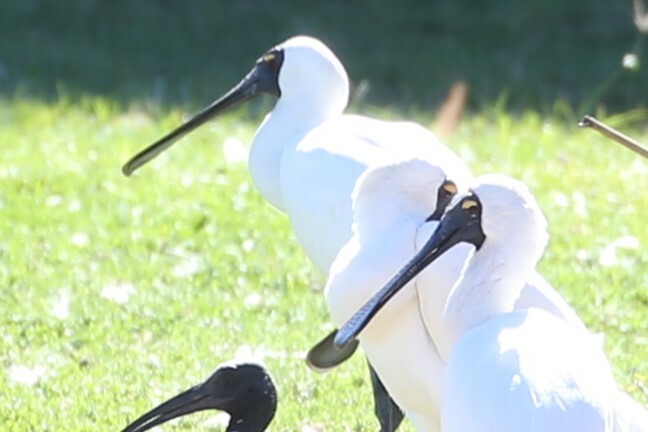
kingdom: Animalia
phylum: Chordata
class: Aves
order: Pelecaniformes
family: Threskiornithidae
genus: Platalea
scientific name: Platalea regia
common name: Royal spoonbill
